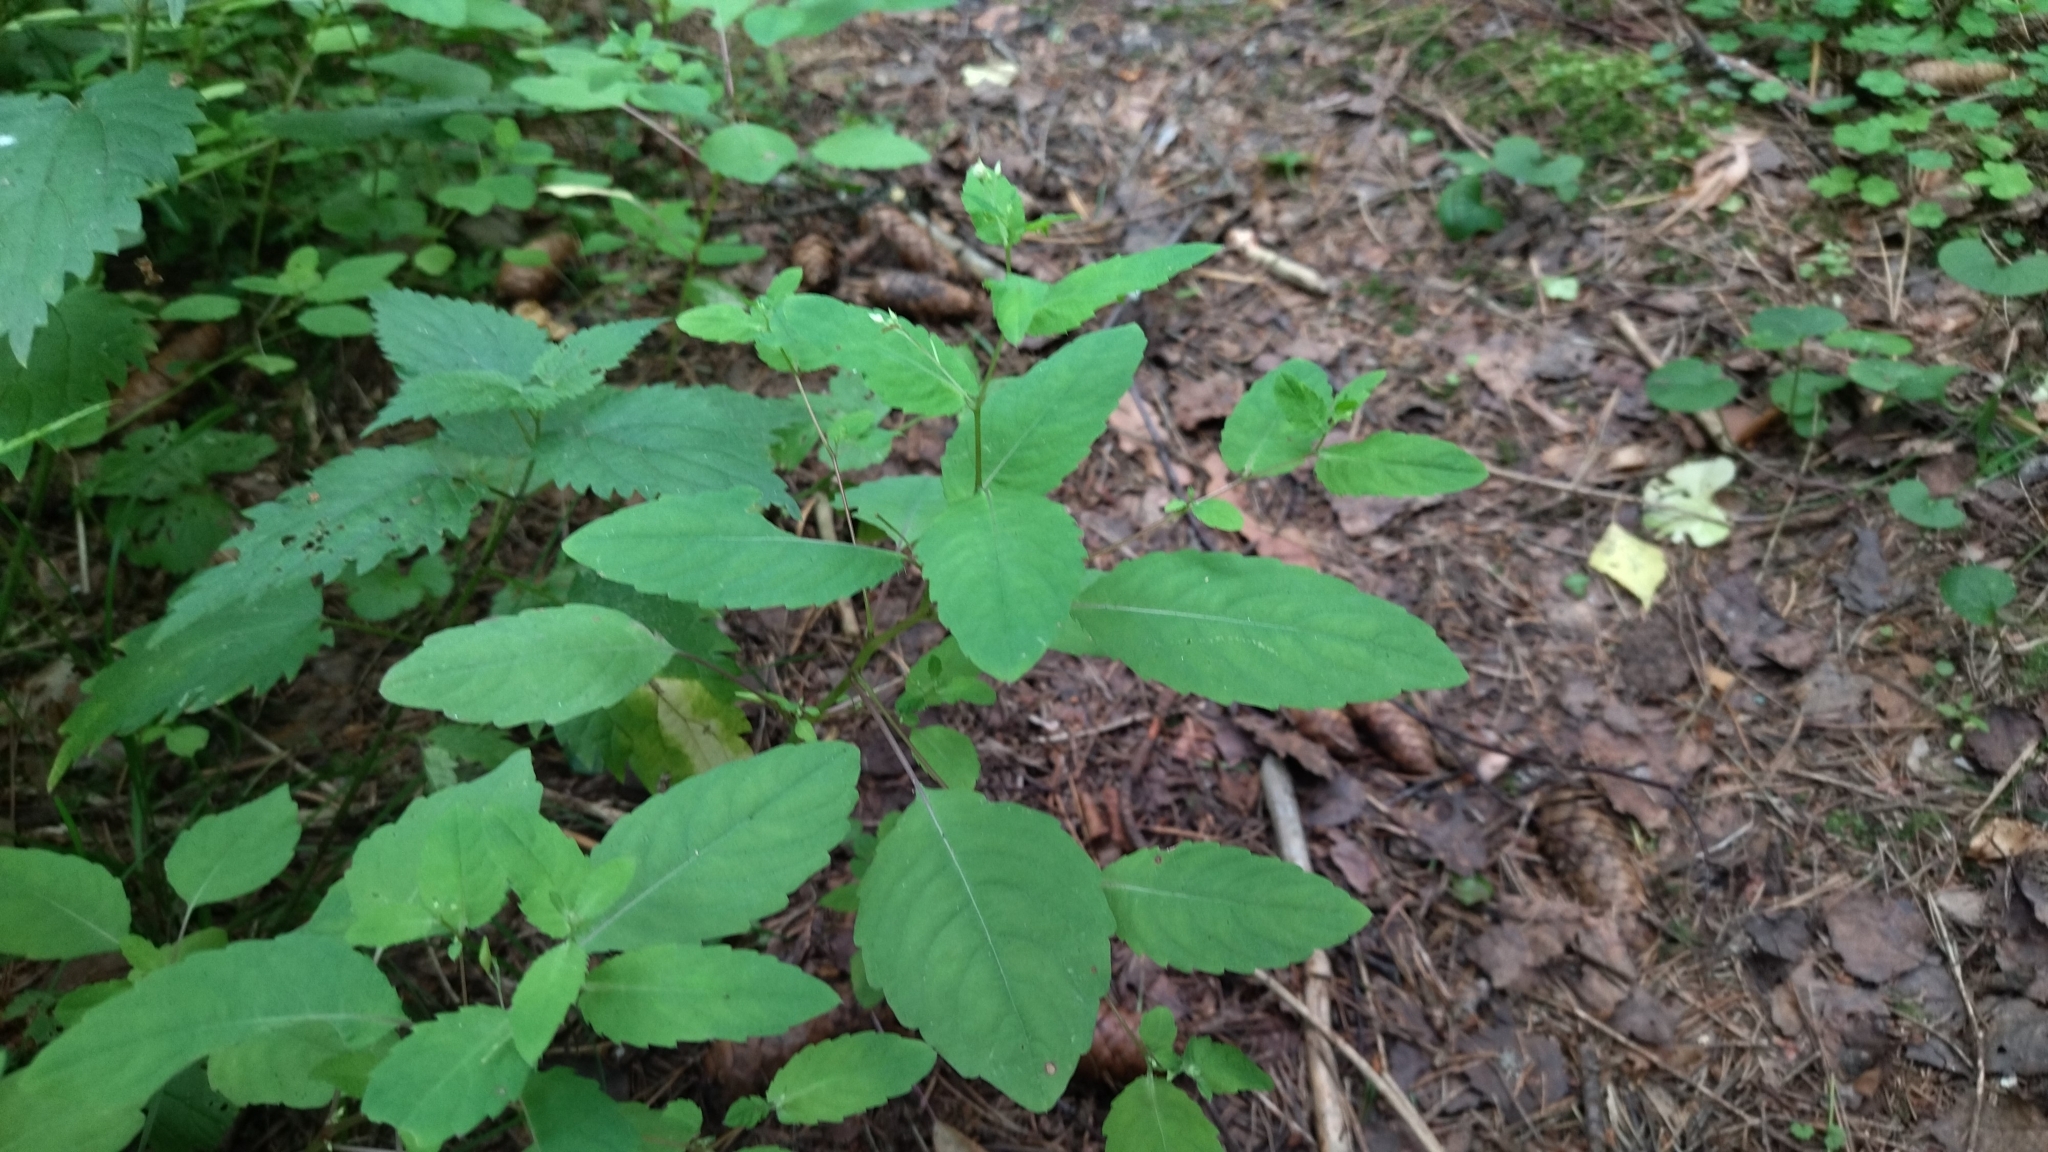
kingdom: Plantae
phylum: Tracheophyta
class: Magnoliopsida
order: Ericales
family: Balsaminaceae
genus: Impatiens
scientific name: Impatiens noli-tangere
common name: Touch-me-not balsam
